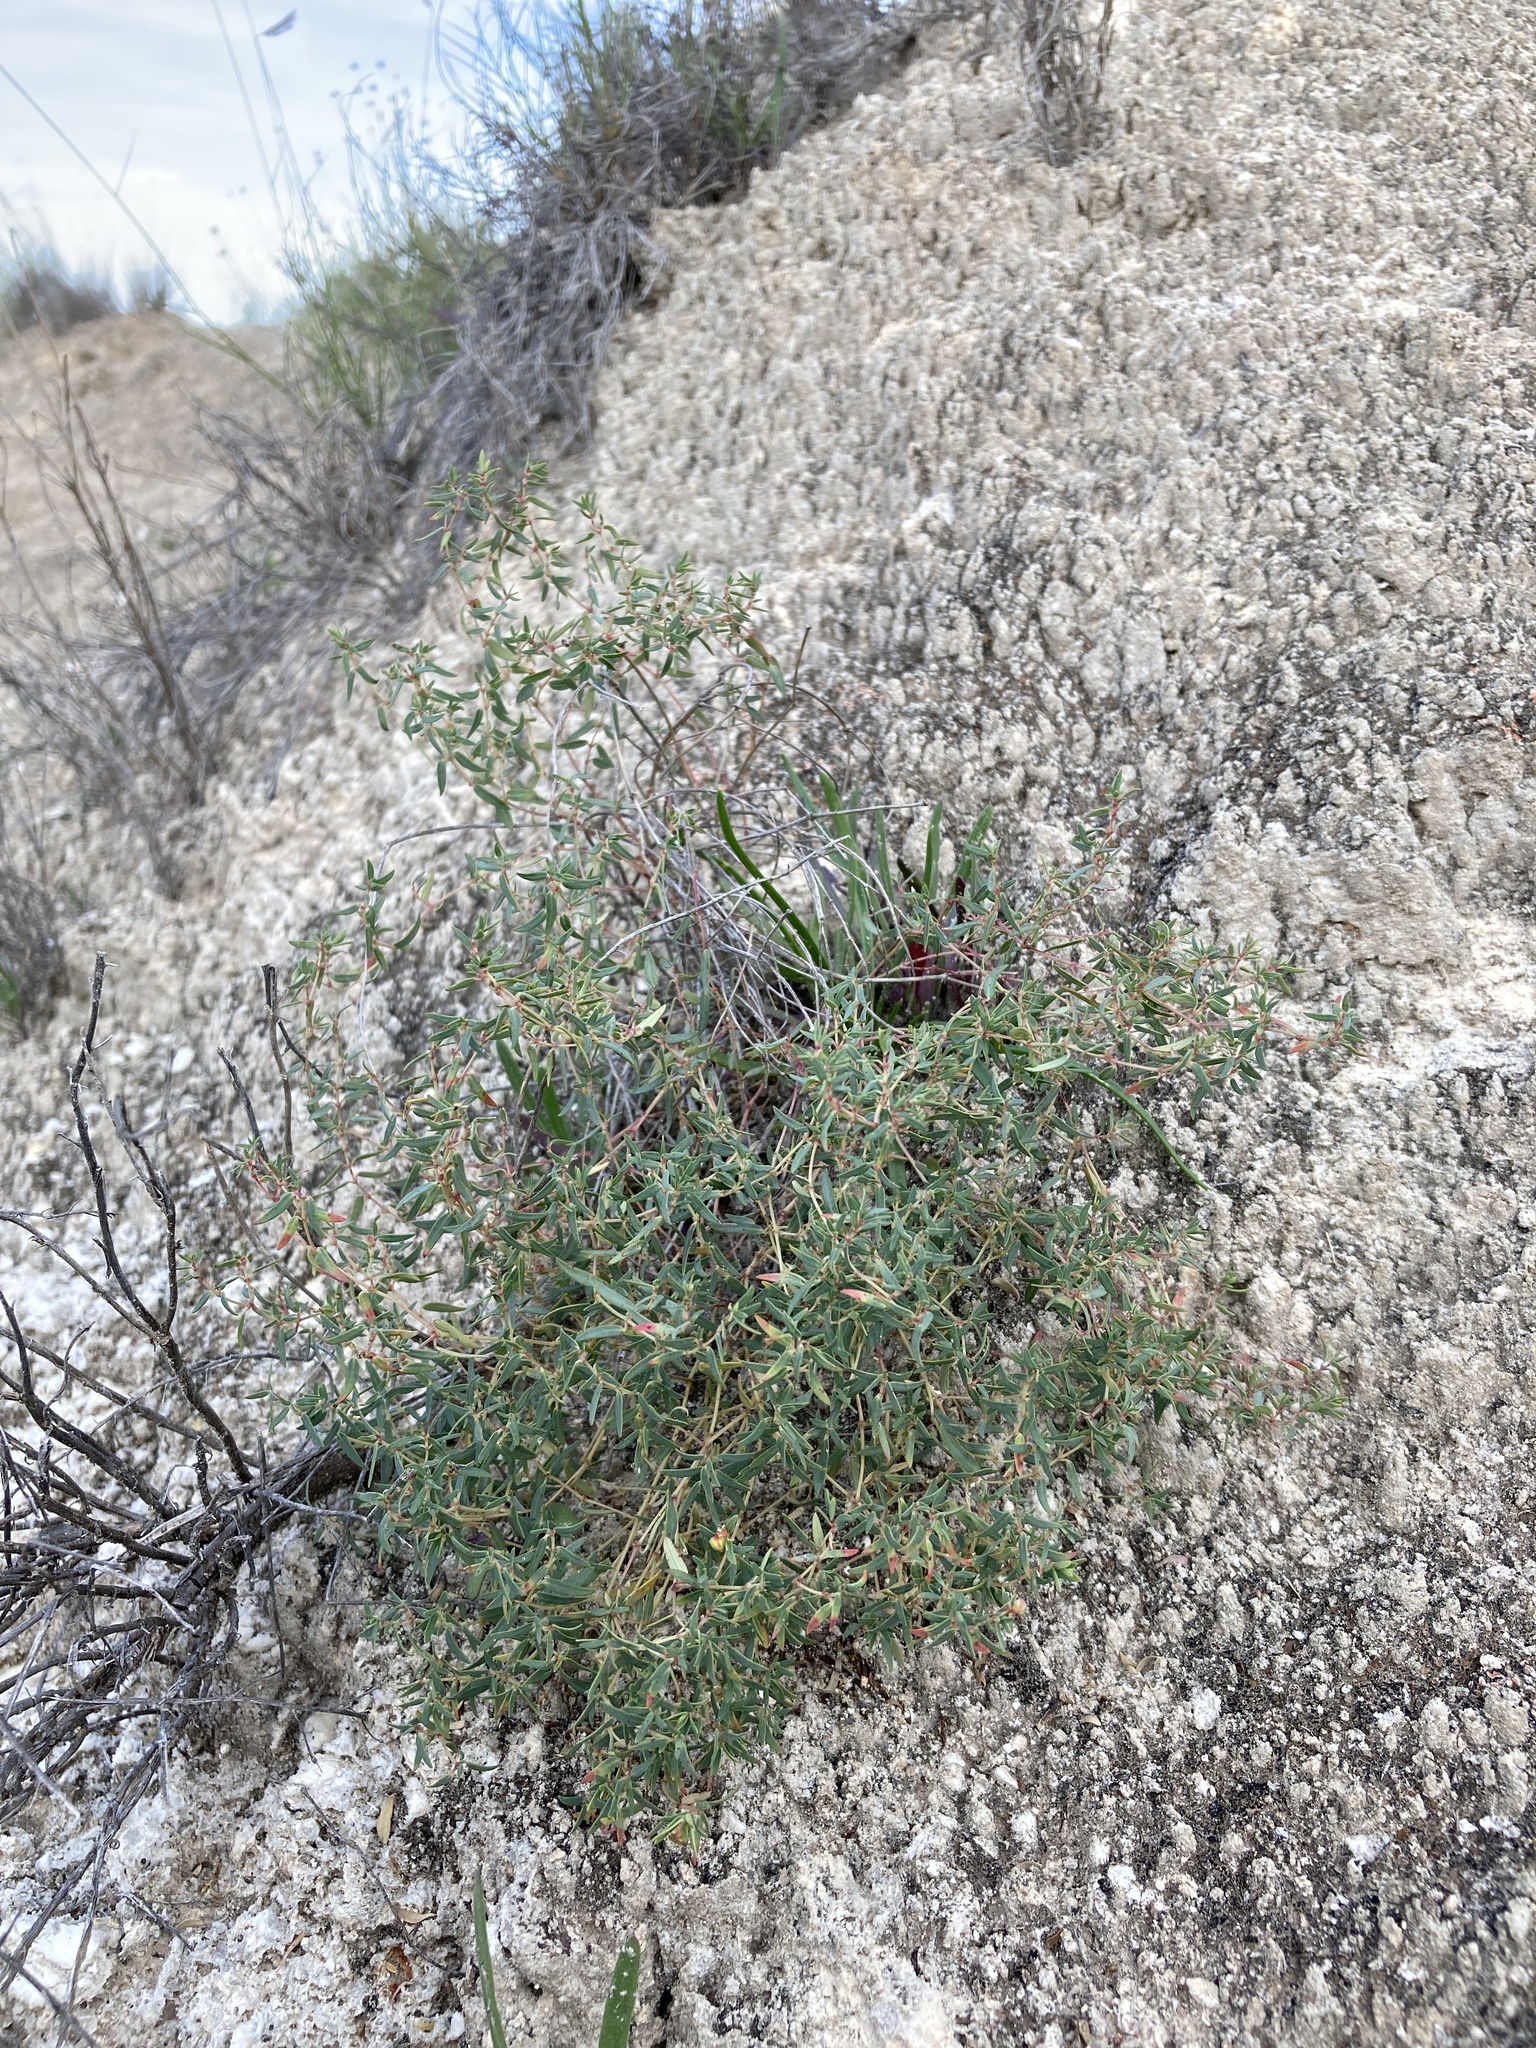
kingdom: Plantae
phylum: Tracheophyta
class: Magnoliopsida
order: Malpighiales
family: Euphorbiaceae
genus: Euphorbia
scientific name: Euphorbia chaetocalyx
